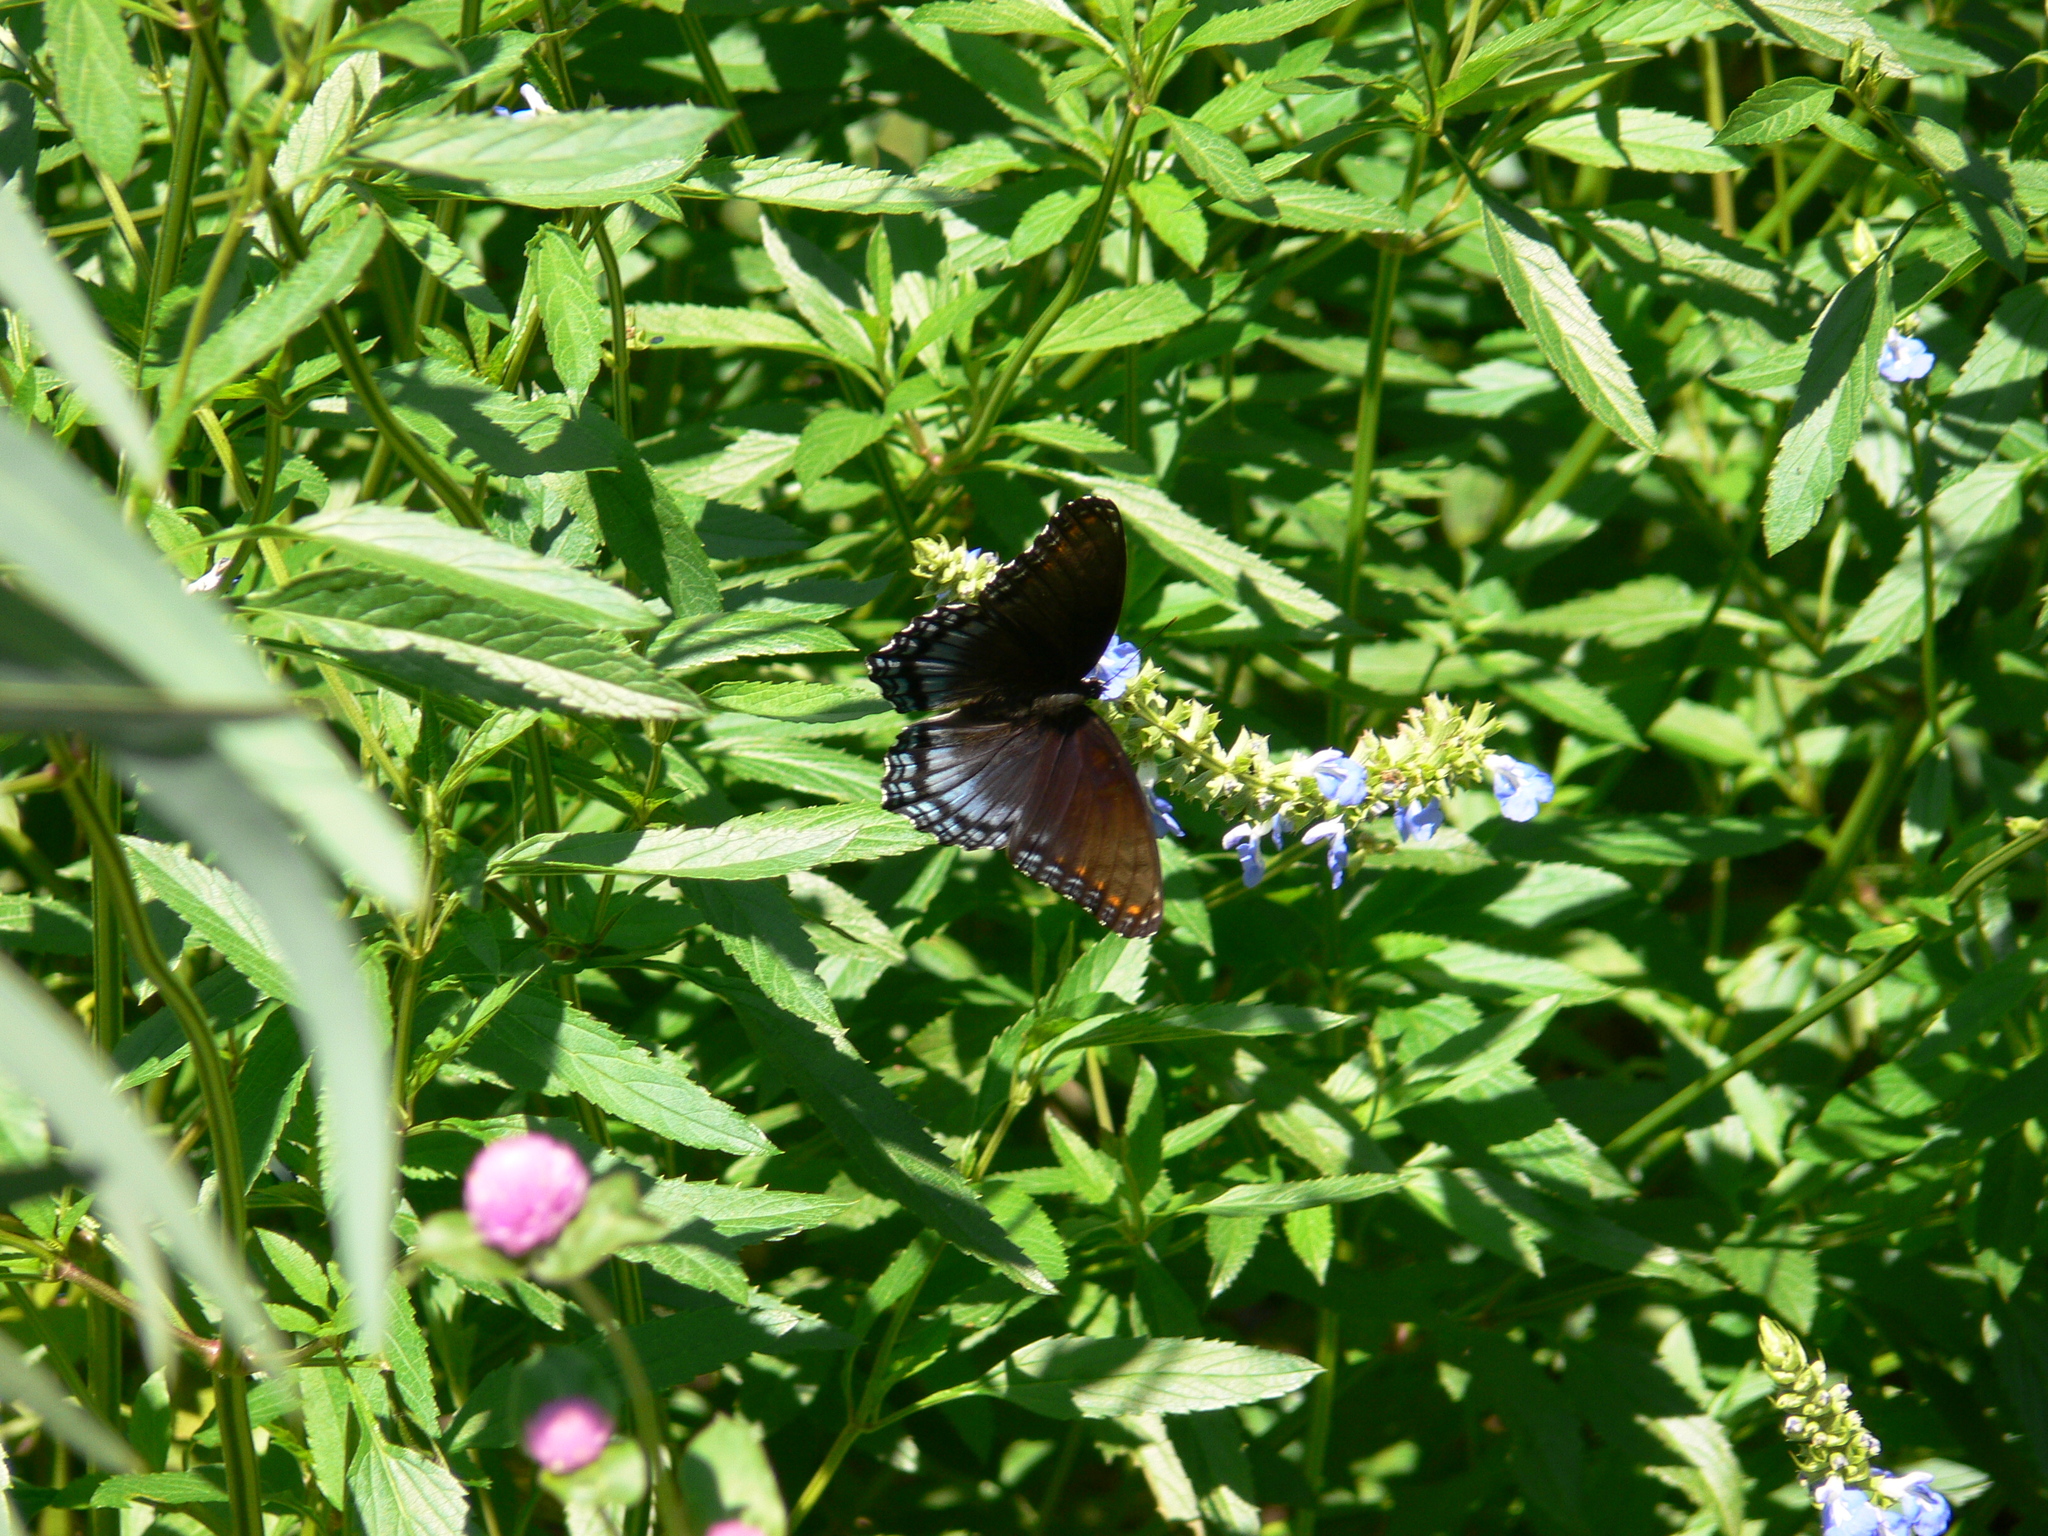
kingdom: Animalia
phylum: Arthropoda
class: Insecta
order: Lepidoptera
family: Nymphalidae
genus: Limenitis
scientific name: Limenitis astyanax
